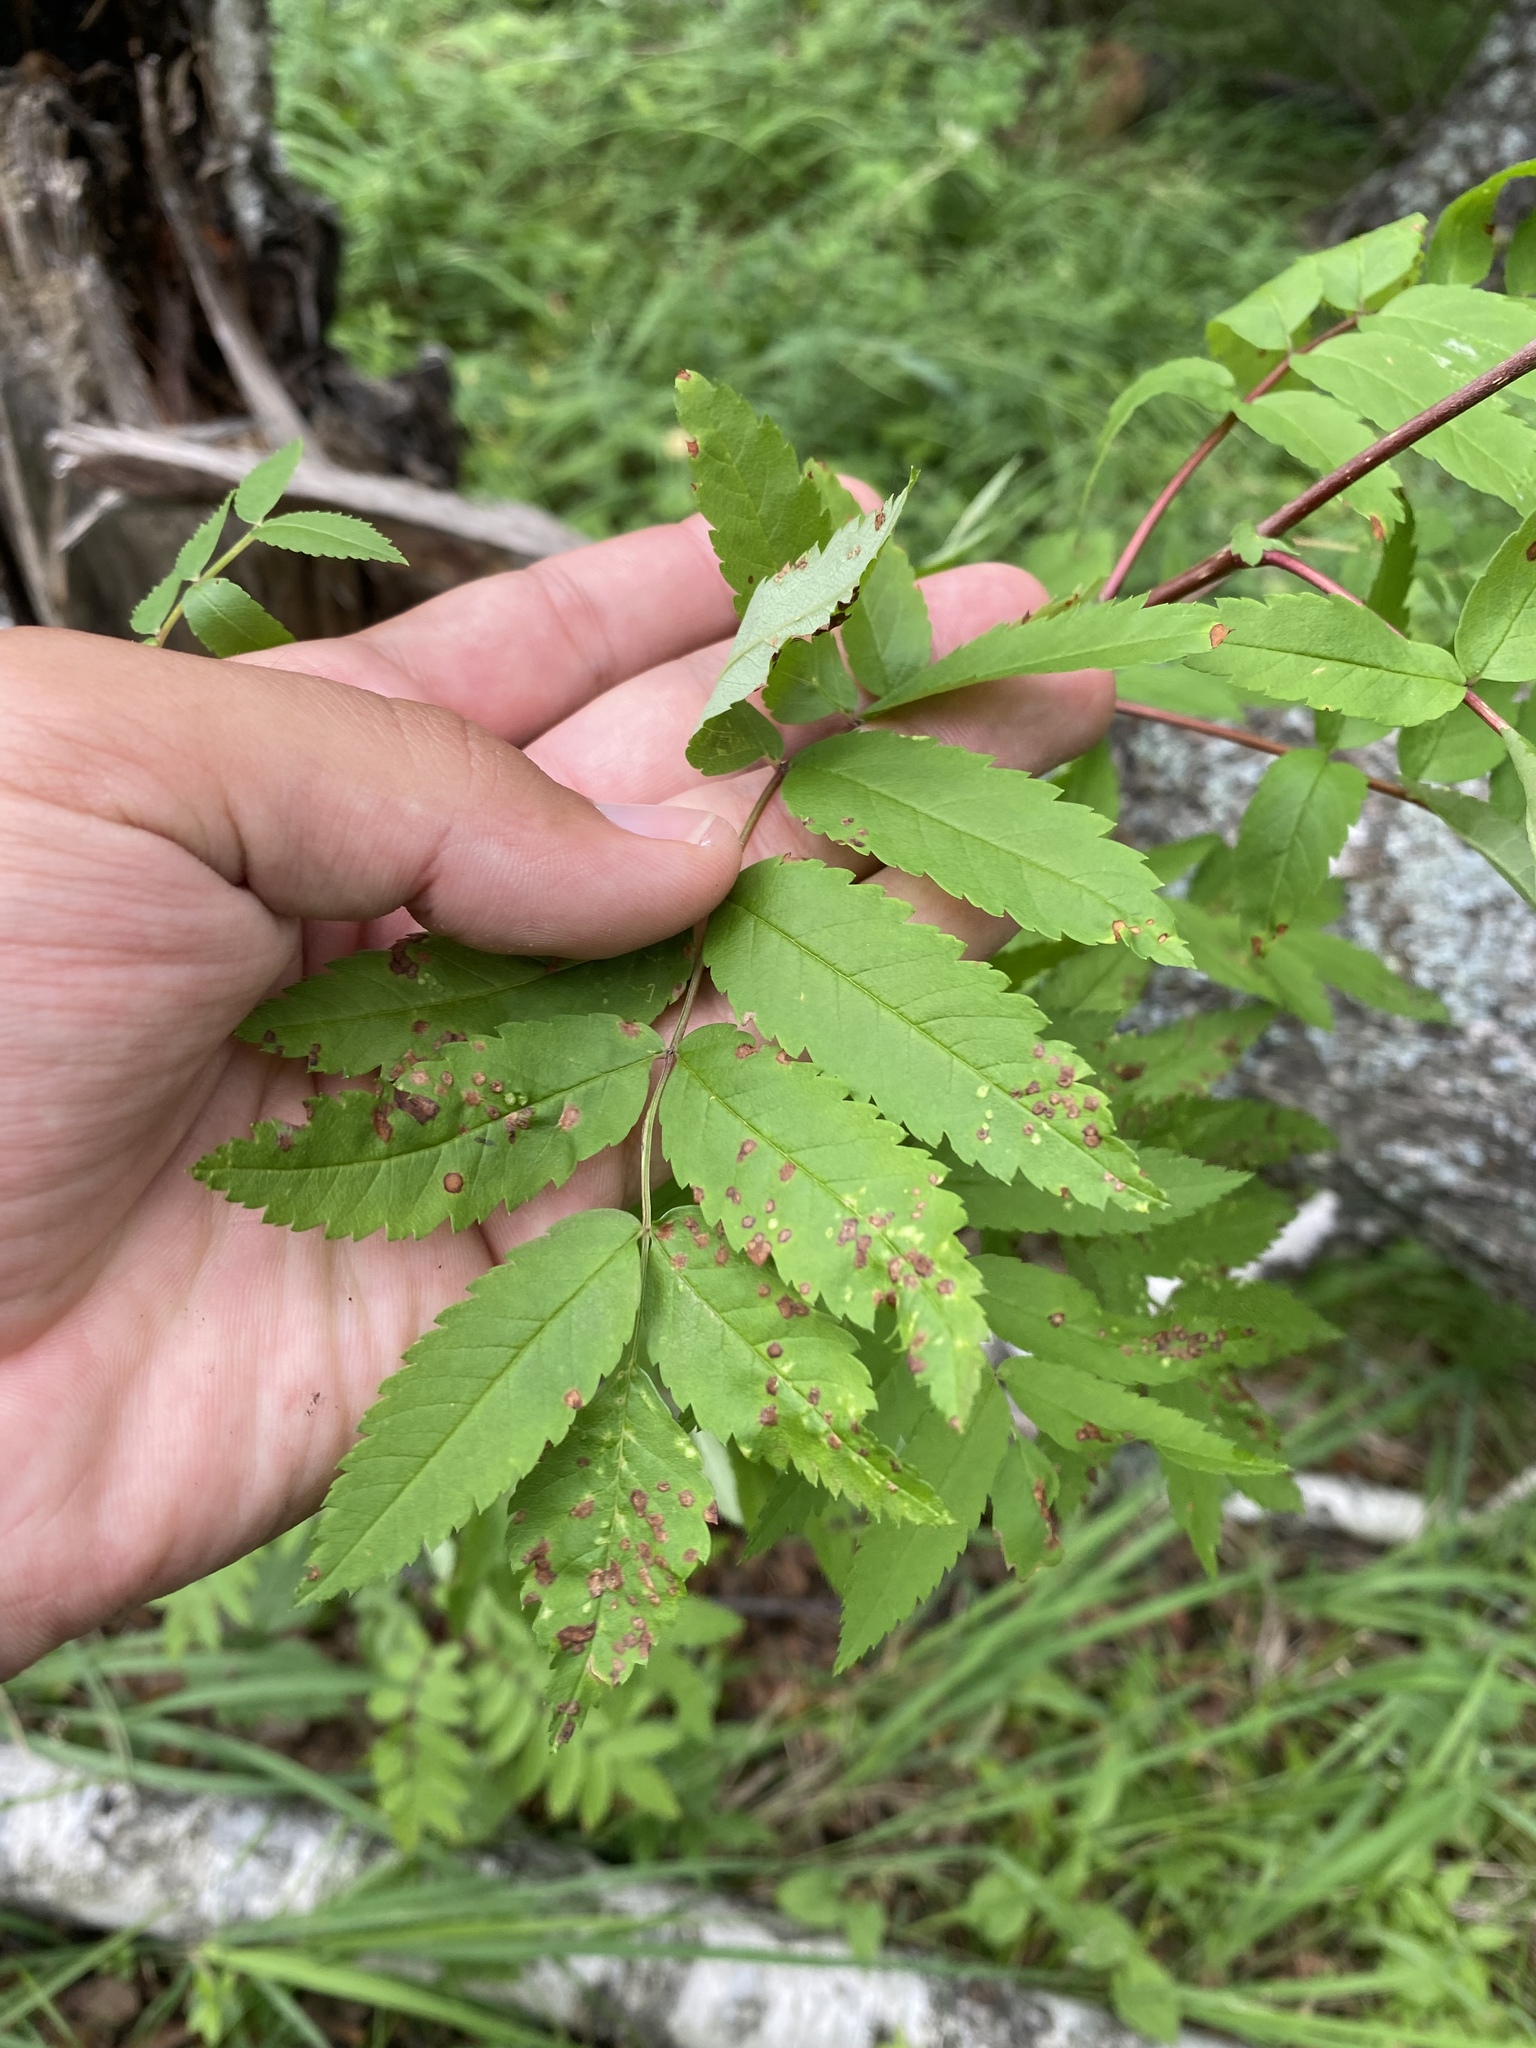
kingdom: Plantae
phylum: Tracheophyta
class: Magnoliopsida
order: Rosales
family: Rosaceae
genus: Sorbus
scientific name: Sorbus aucuparia
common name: Rowan
